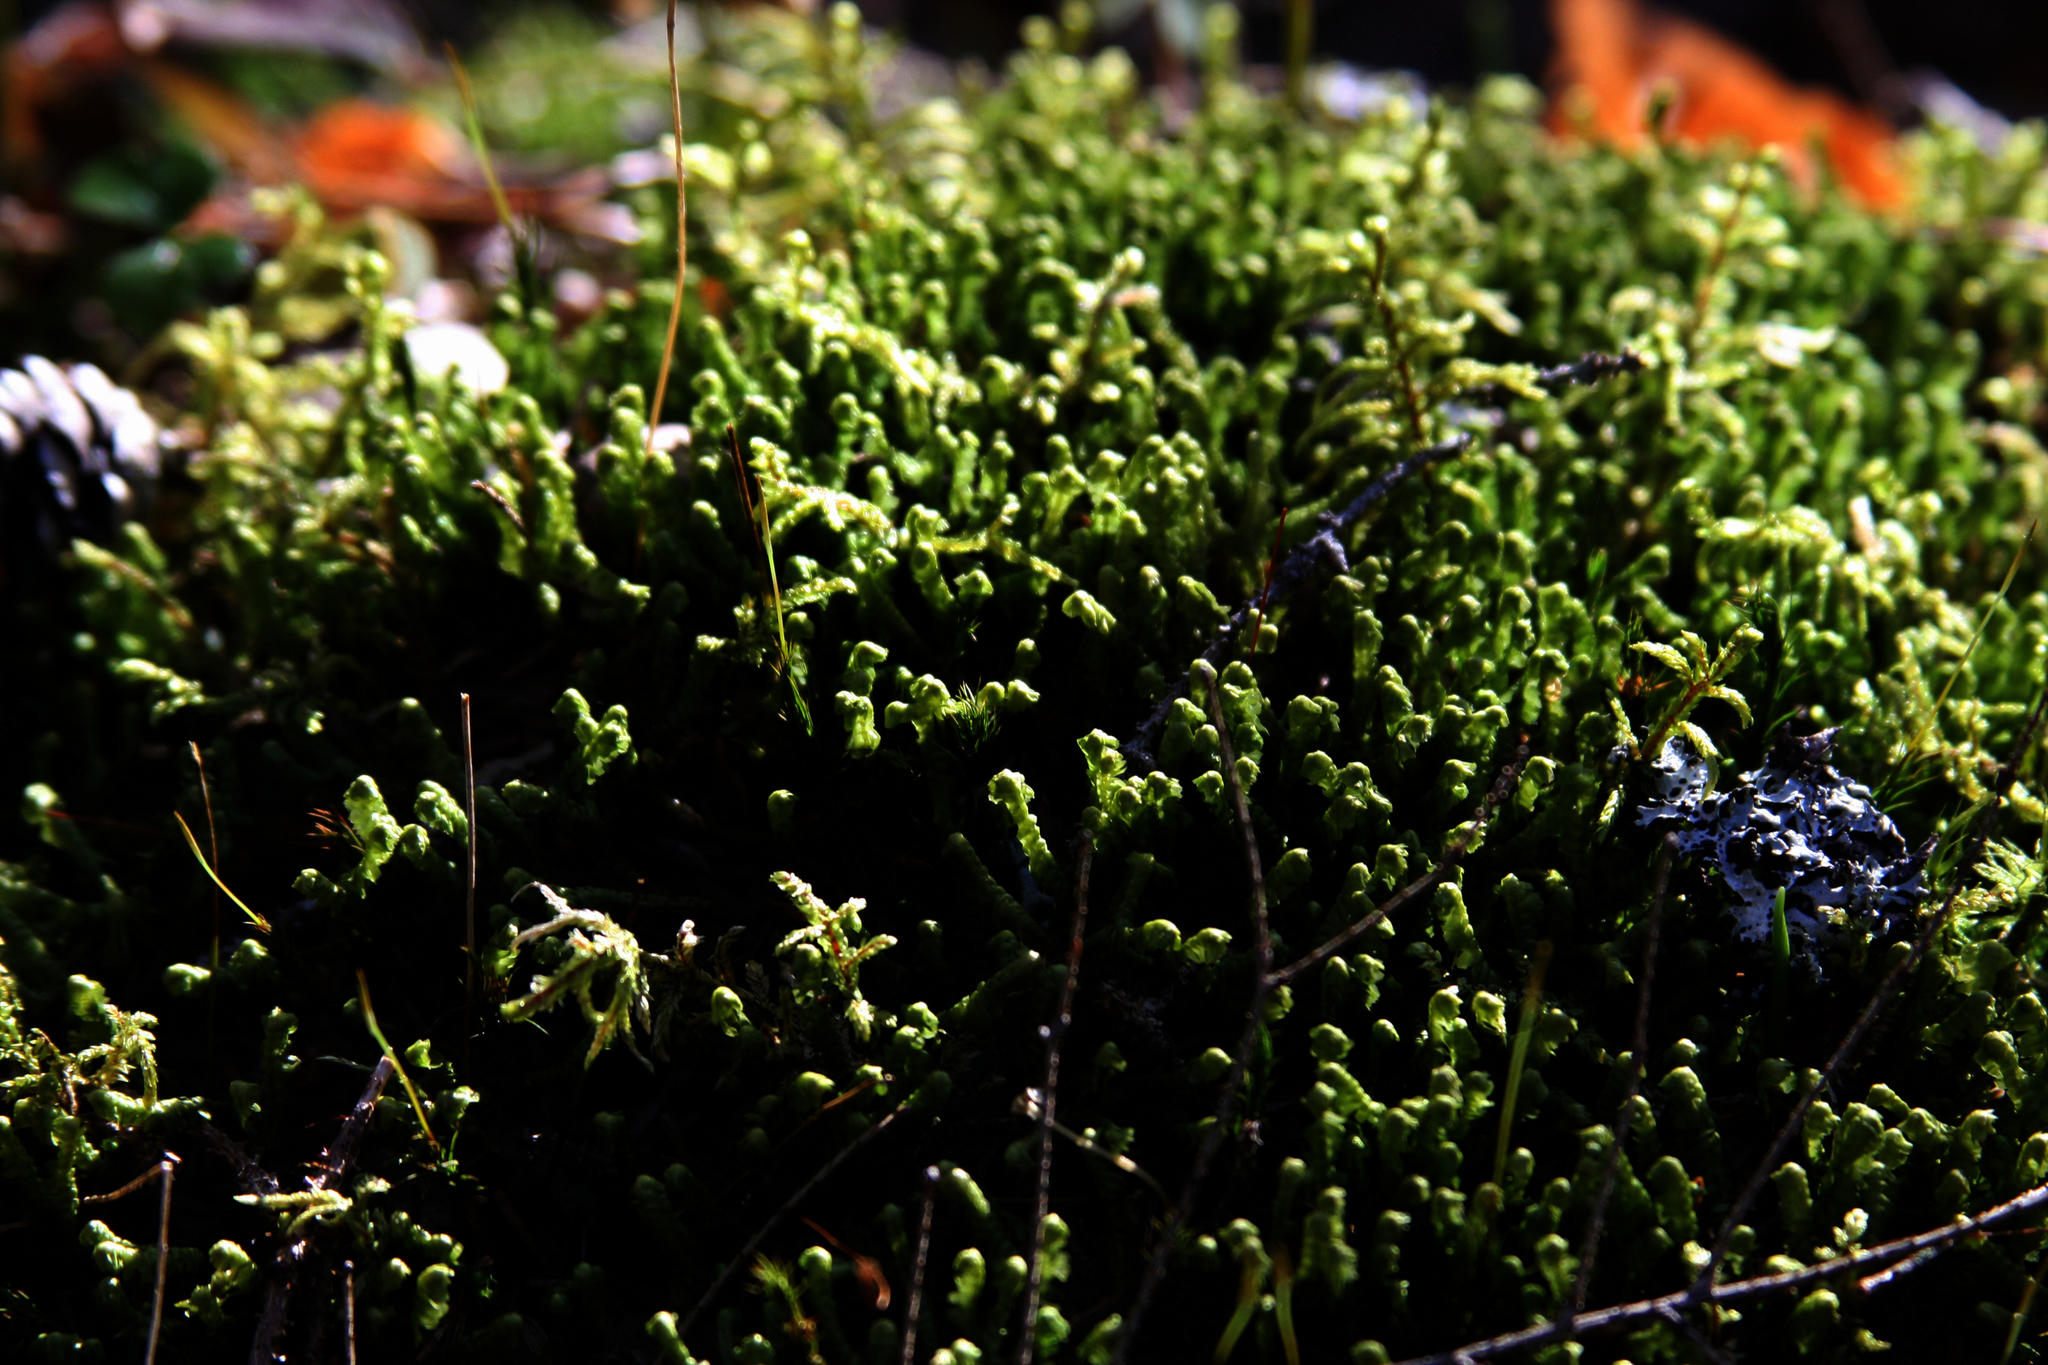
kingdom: Plantae
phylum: Marchantiophyta
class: Jungermanniopsida
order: Jungermanniales
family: Lepidoziaceae
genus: Bazzania
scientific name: Bazzania trilobata
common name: Three-lobed whipwort
